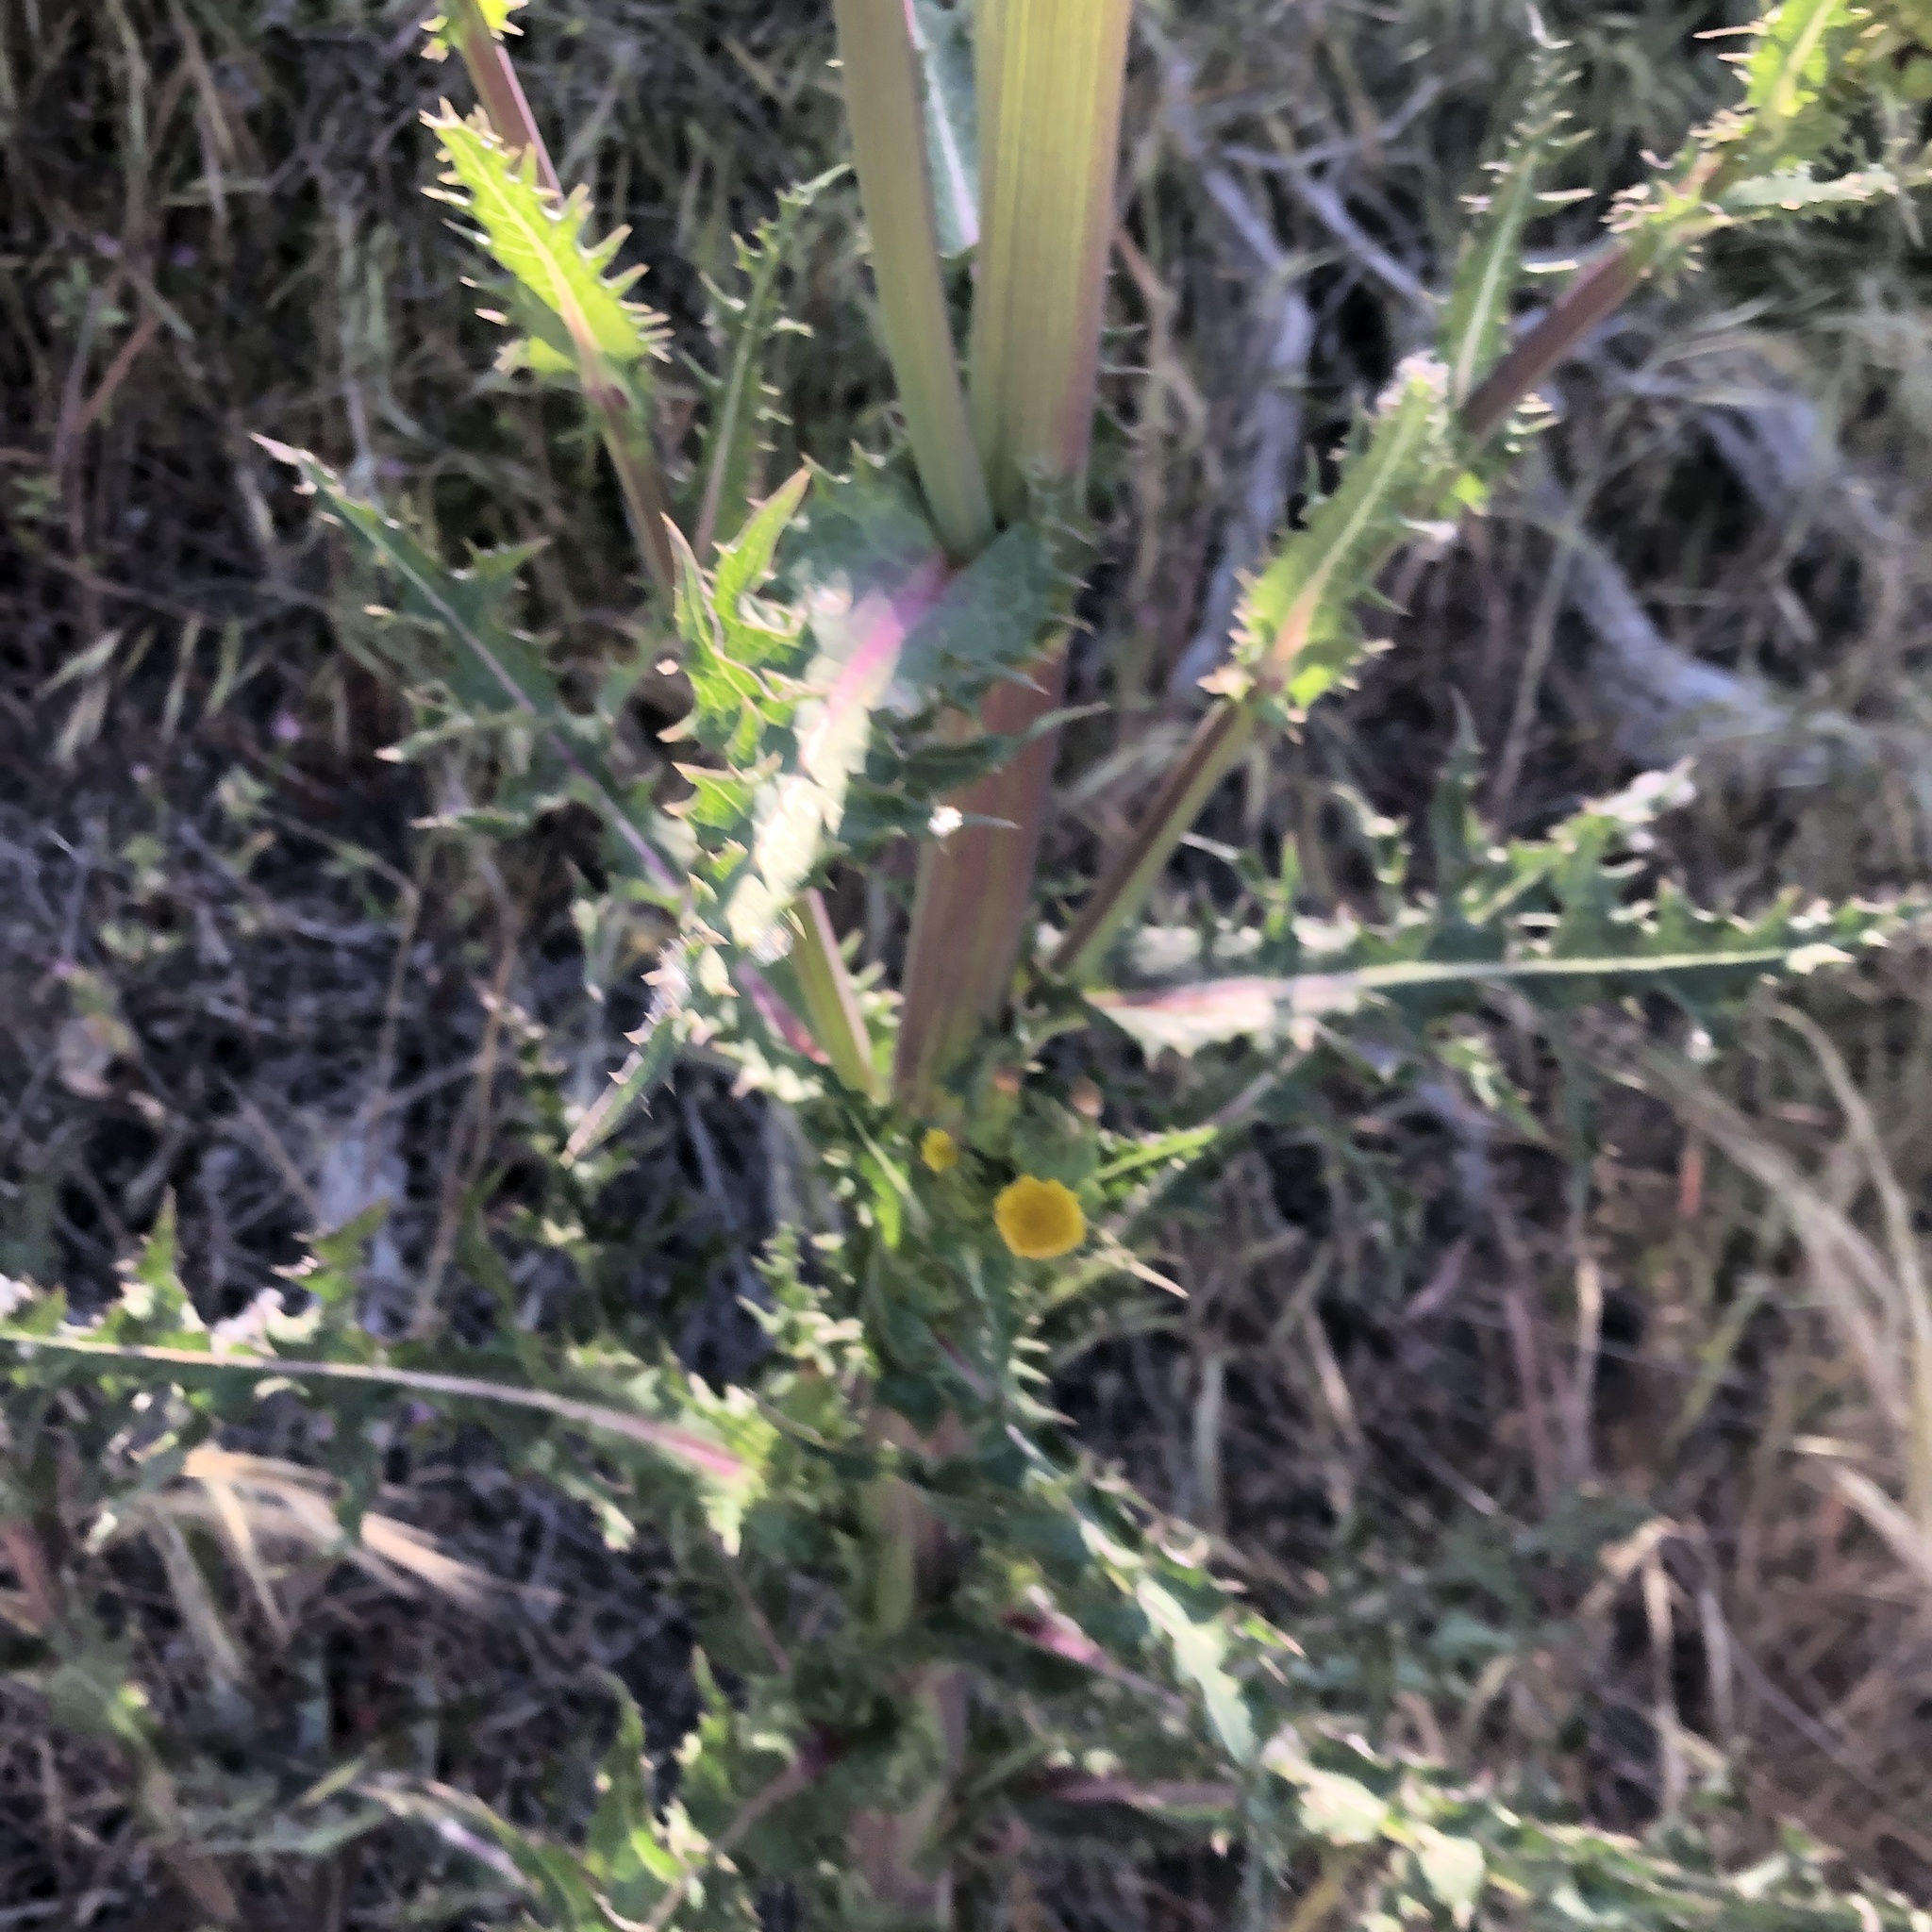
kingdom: Plantae
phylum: Tracheophyta
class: Magnoliopsida
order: Asterales
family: Asteraceae
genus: Sonchus
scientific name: Sonchus asper
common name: Prickly sow-thistle
